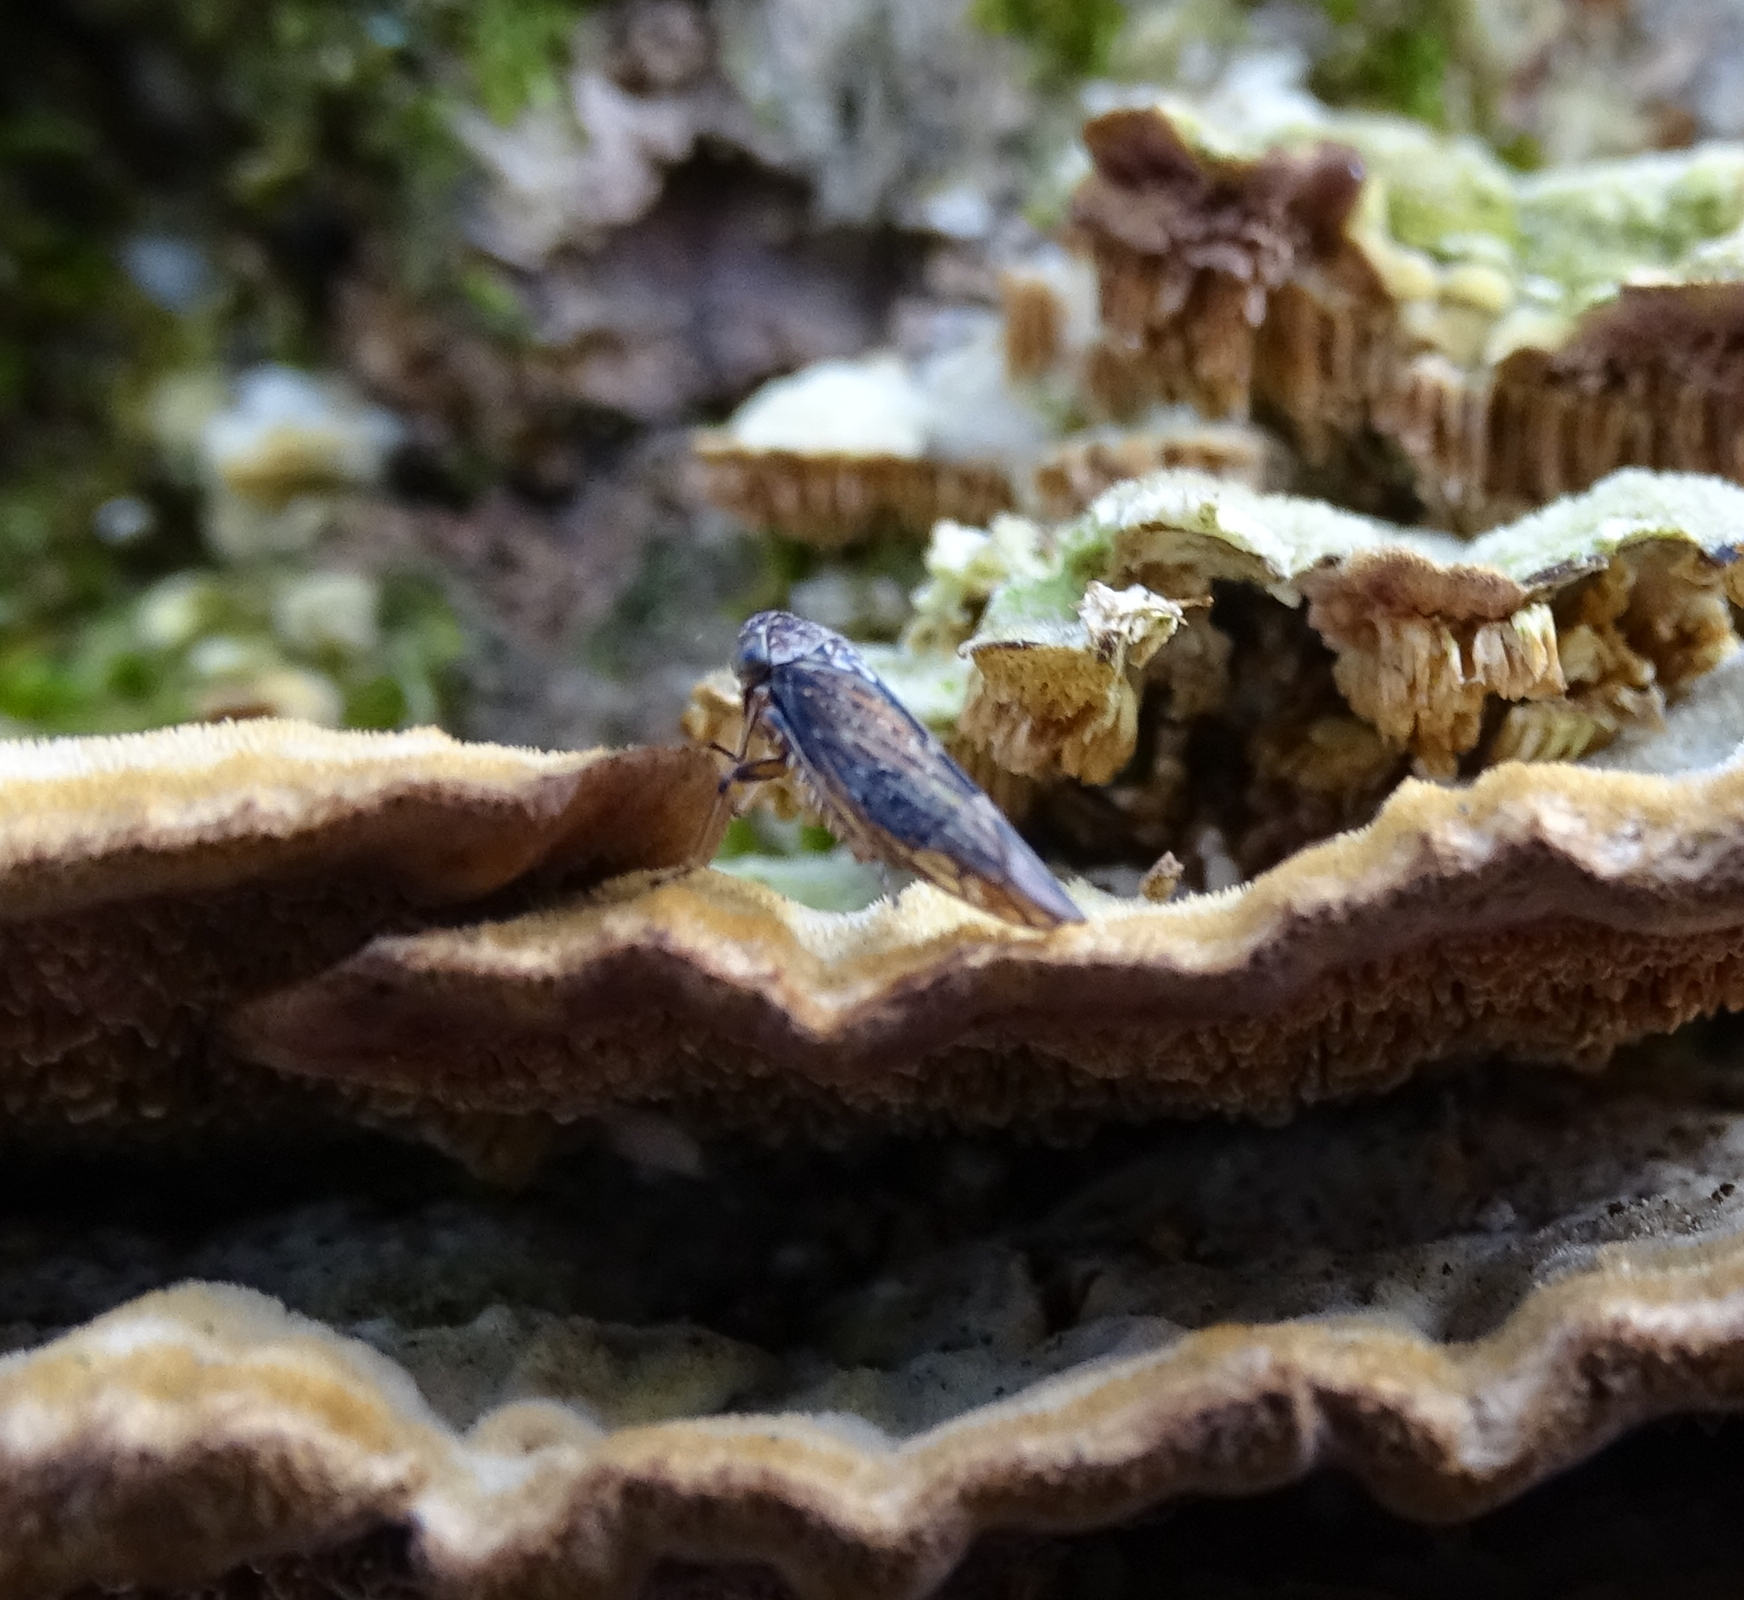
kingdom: Animalia
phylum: Arthropoda
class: Insecta
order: Hemiptera
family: Cicadellidae
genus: Acericerus
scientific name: Acericerus ribauti
